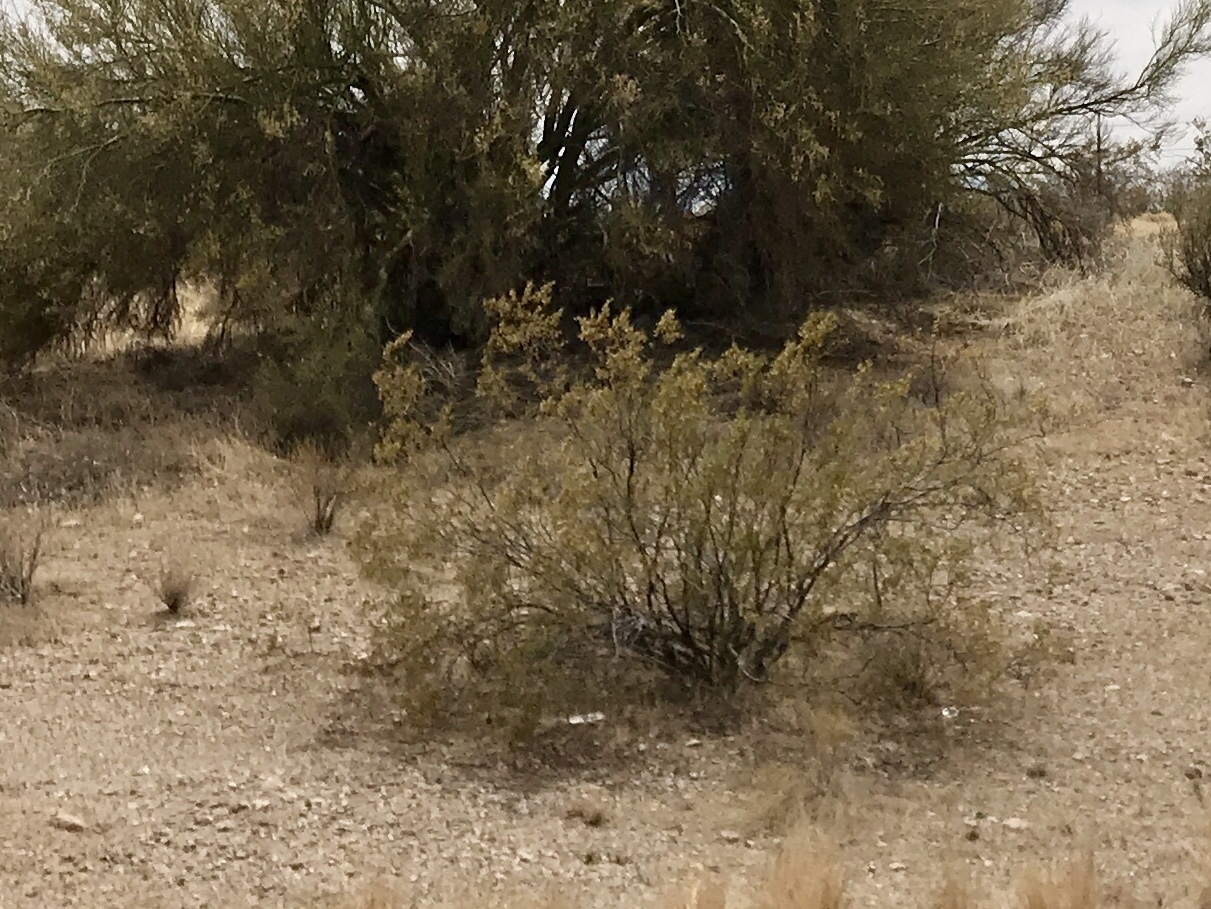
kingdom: Plantae
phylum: Tracheophyta
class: Magnoliopsida
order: Zygophyllales
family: Zygophyllaceae
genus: Larrea
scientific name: Larrea tridentata
